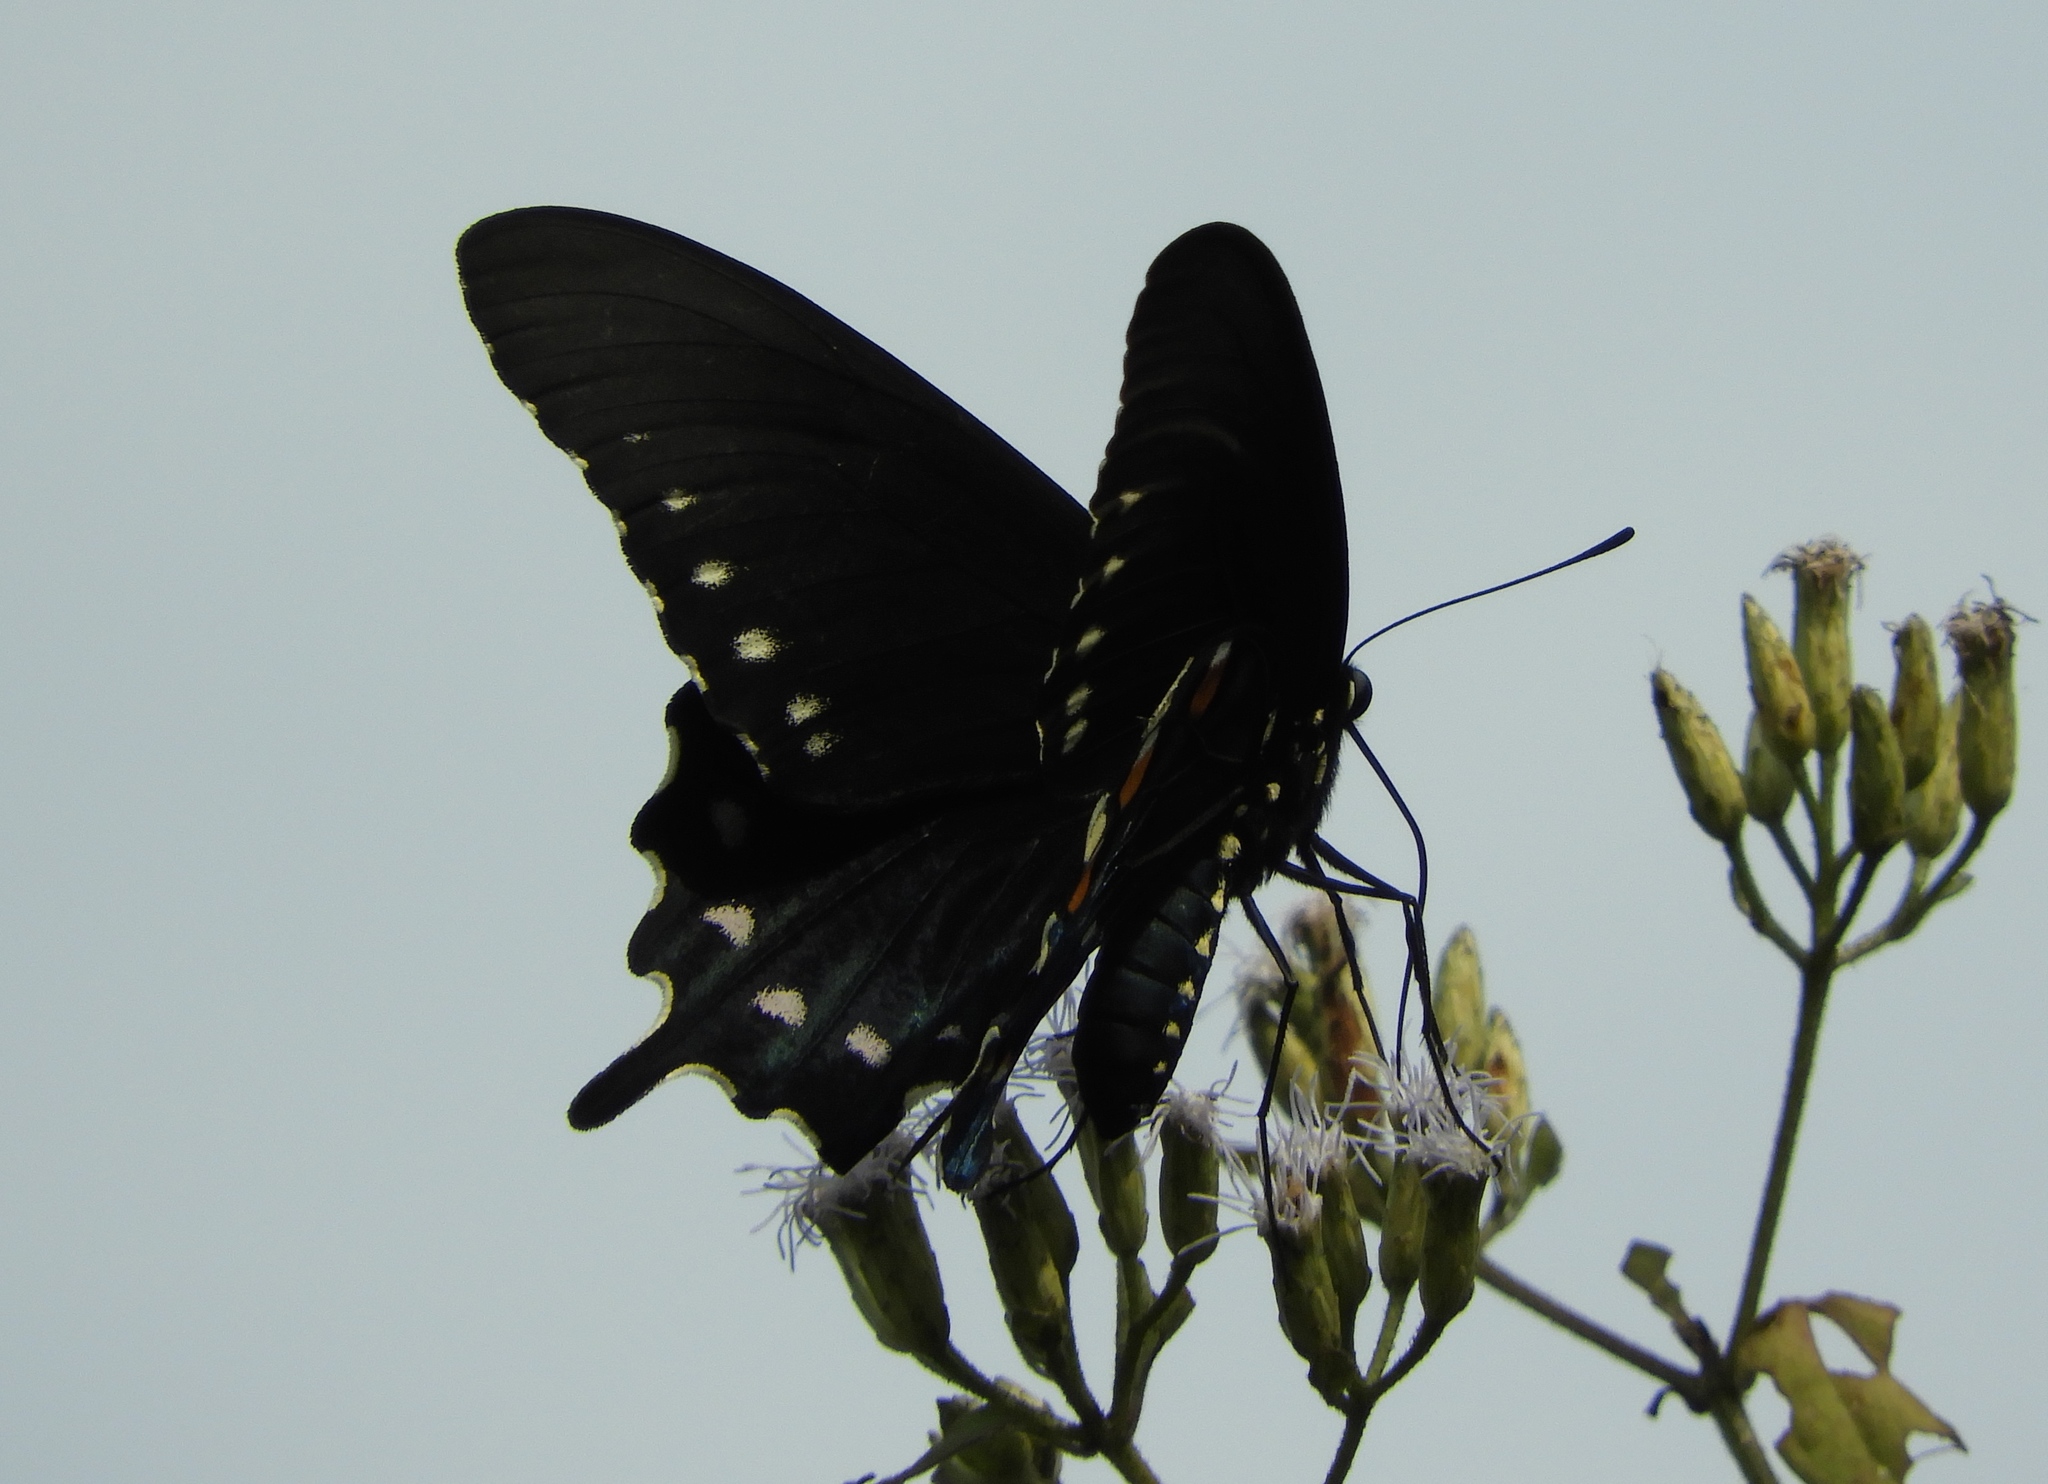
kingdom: Animalia
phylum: Arthropoda
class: Insecta
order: Lepidoptera
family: Papilionidae
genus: Battus
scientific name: Battus philenor
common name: Pipevine swallowtail
